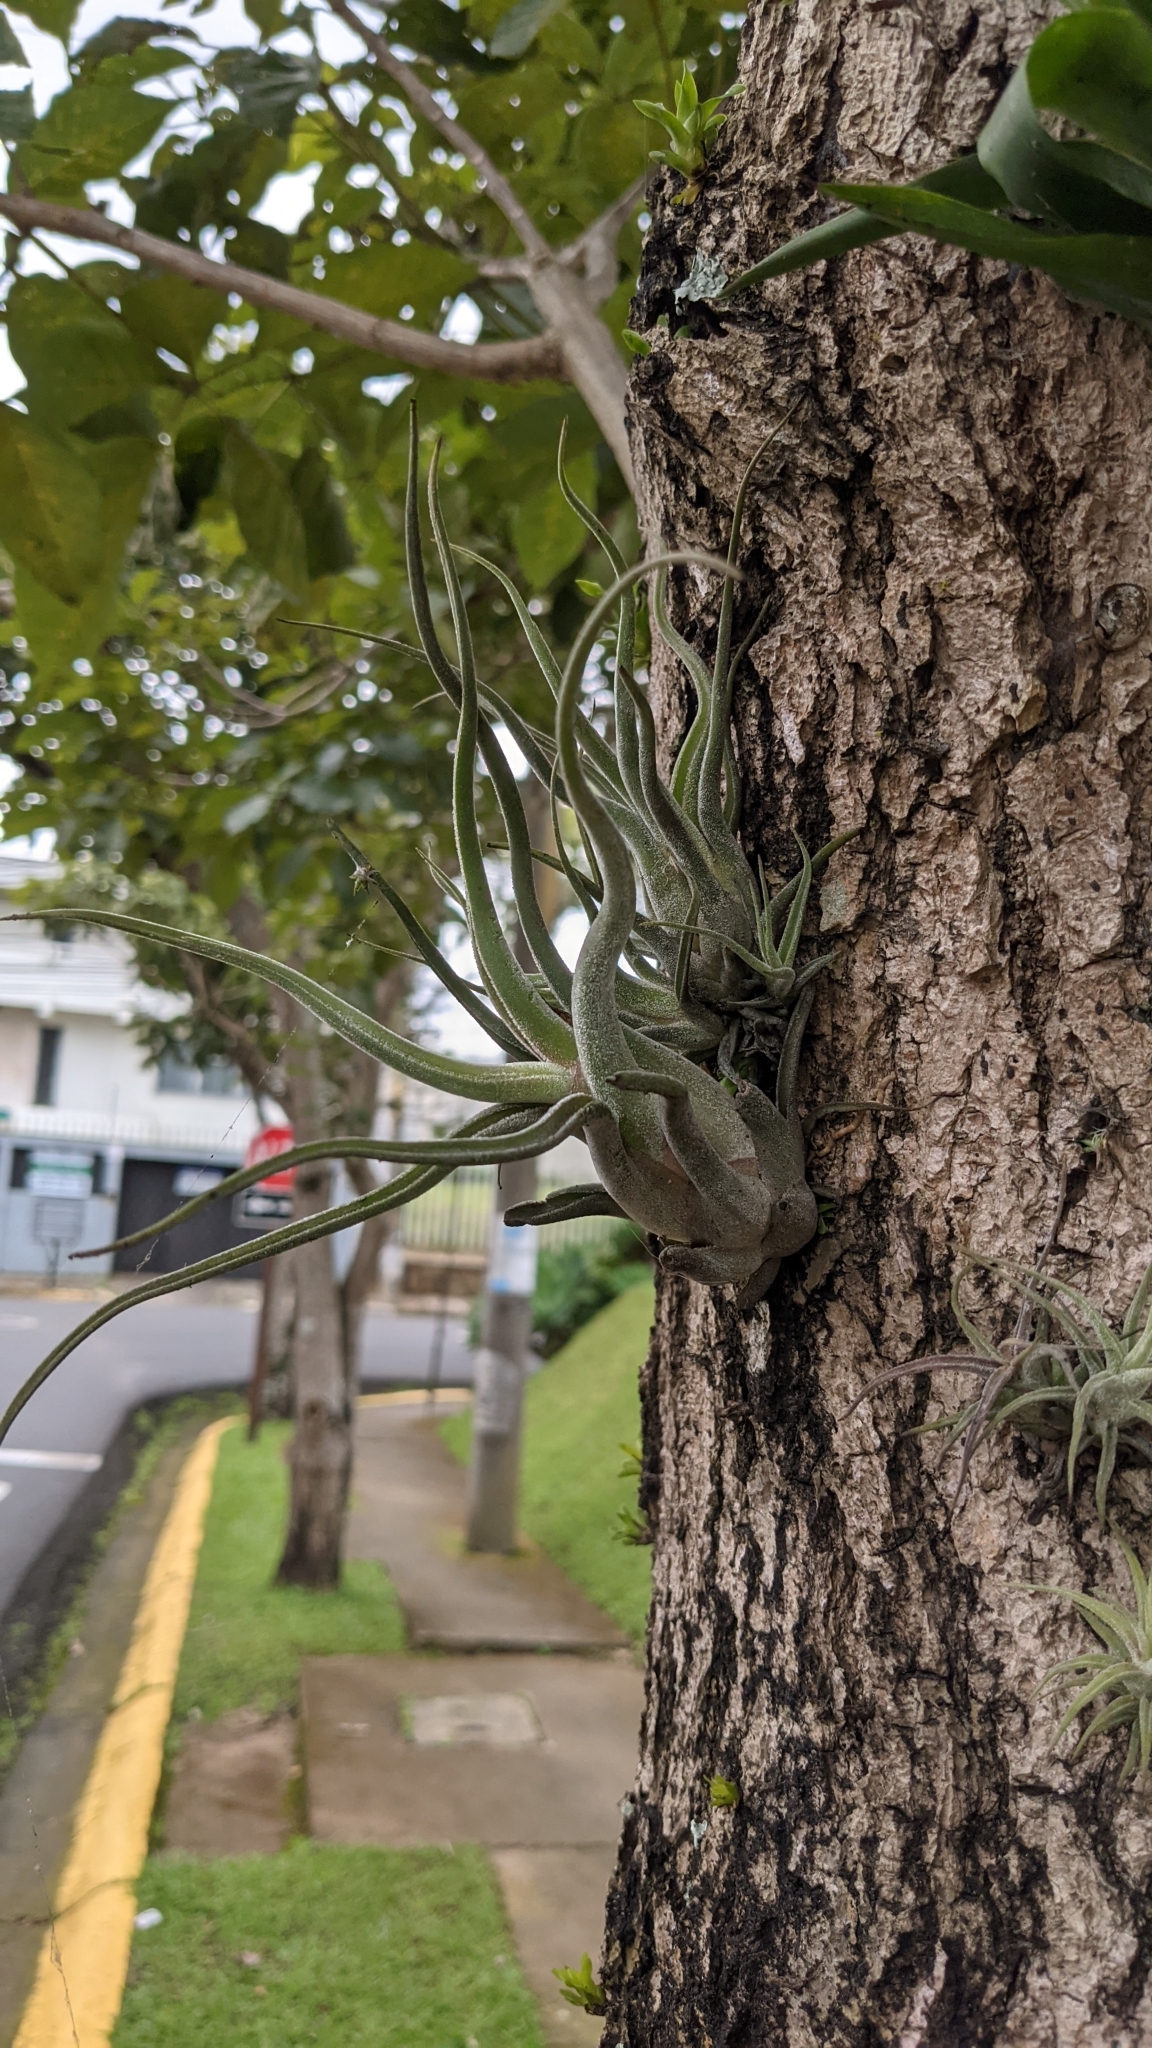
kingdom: Plantae
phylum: Tracheophyta
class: Liliopsida
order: Poales
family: Bromeliaceae
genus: Tillandsia
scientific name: Tillandsia caput-medusae
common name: Octopus plant
